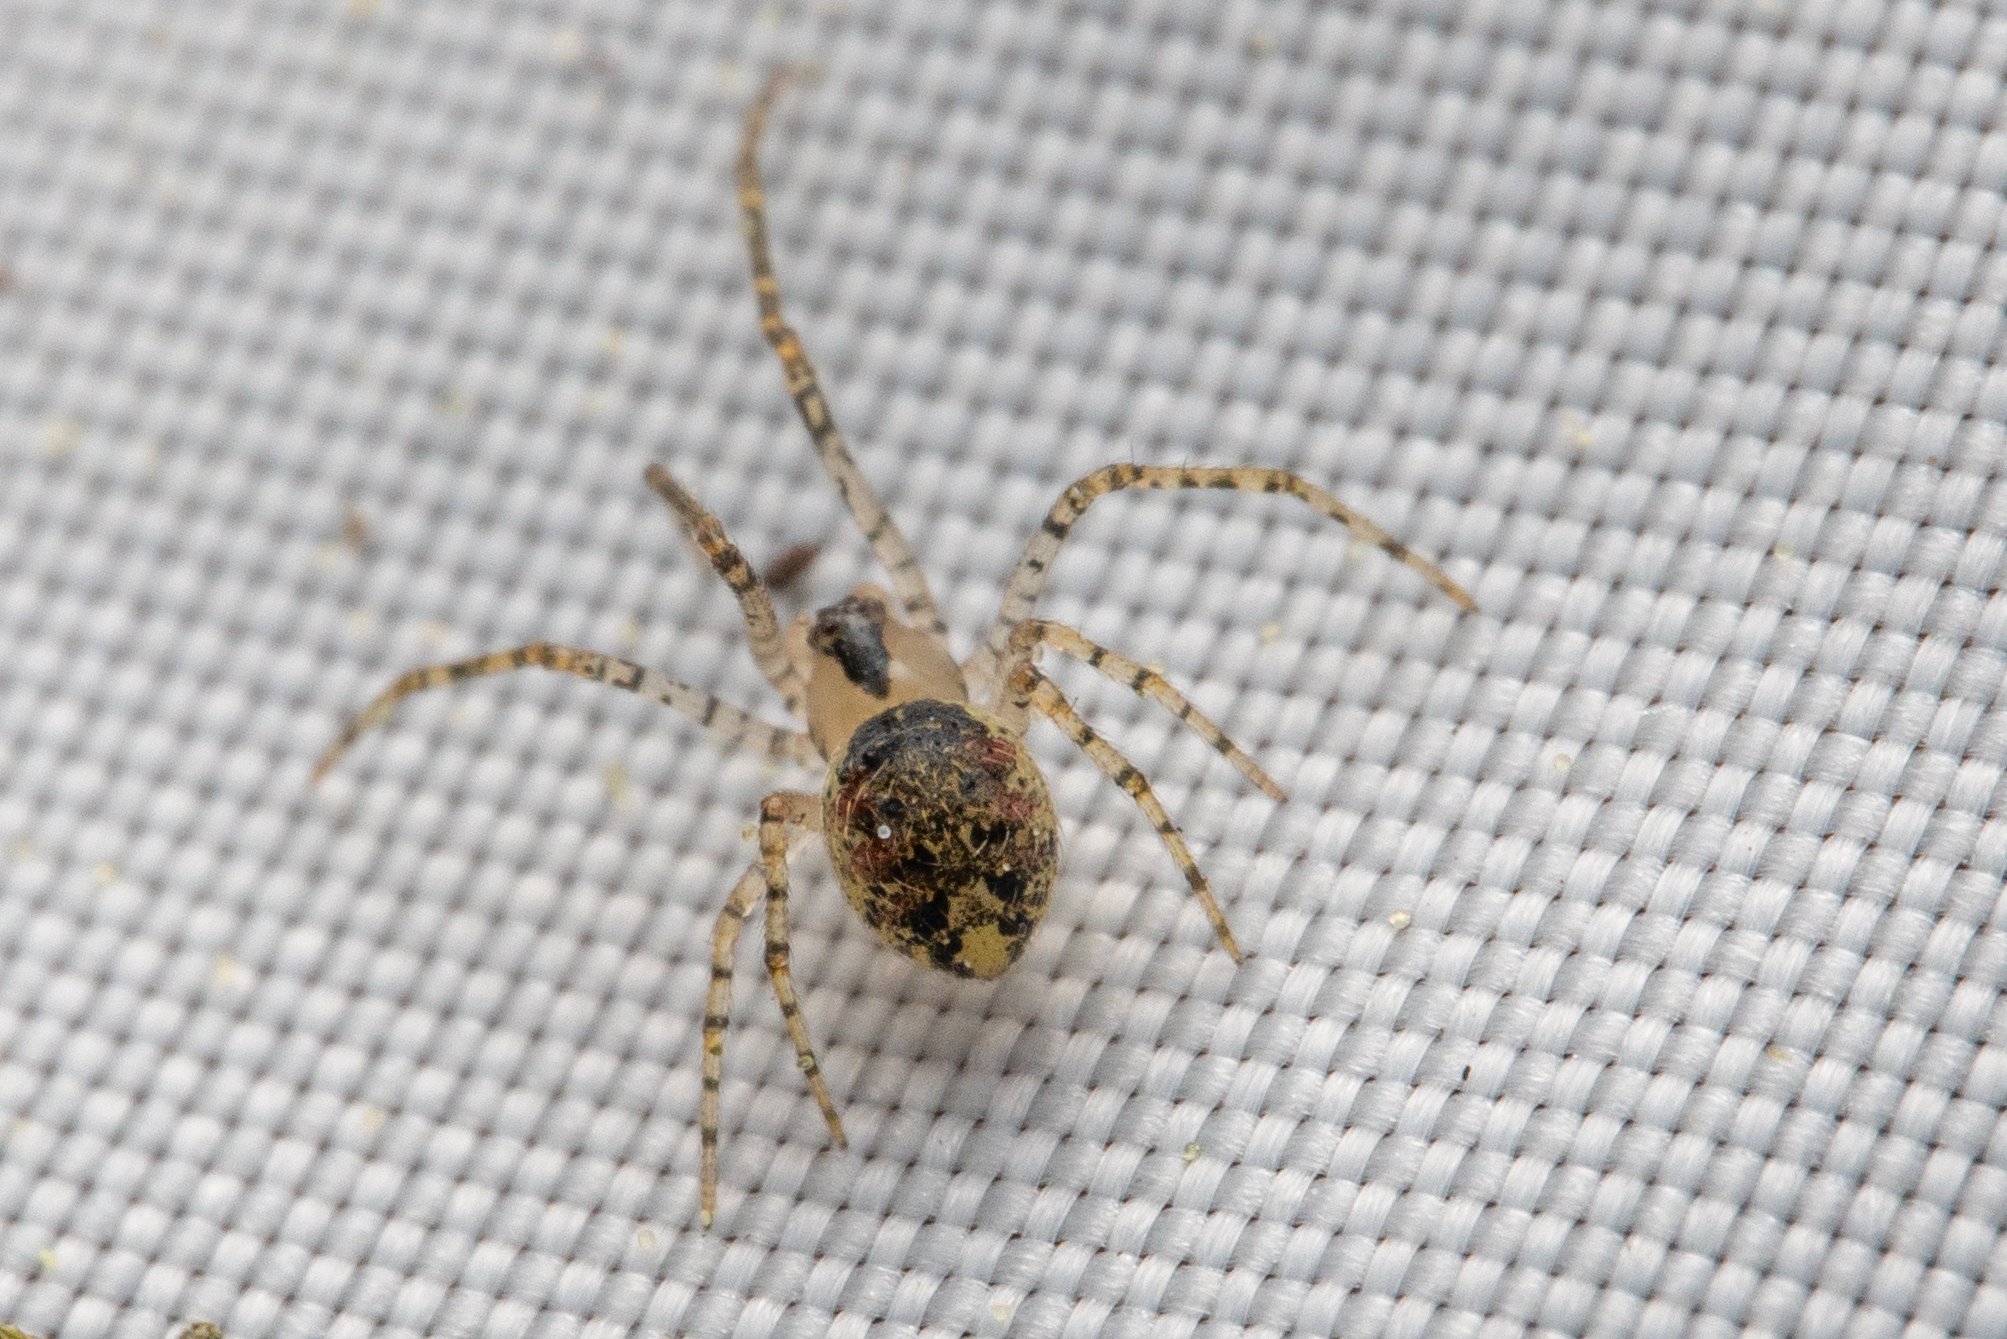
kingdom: Animalia
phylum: Arthropoda
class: Arachnida
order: Araneae
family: Theridiidae
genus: Platnickina
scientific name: Platnickina tincta
